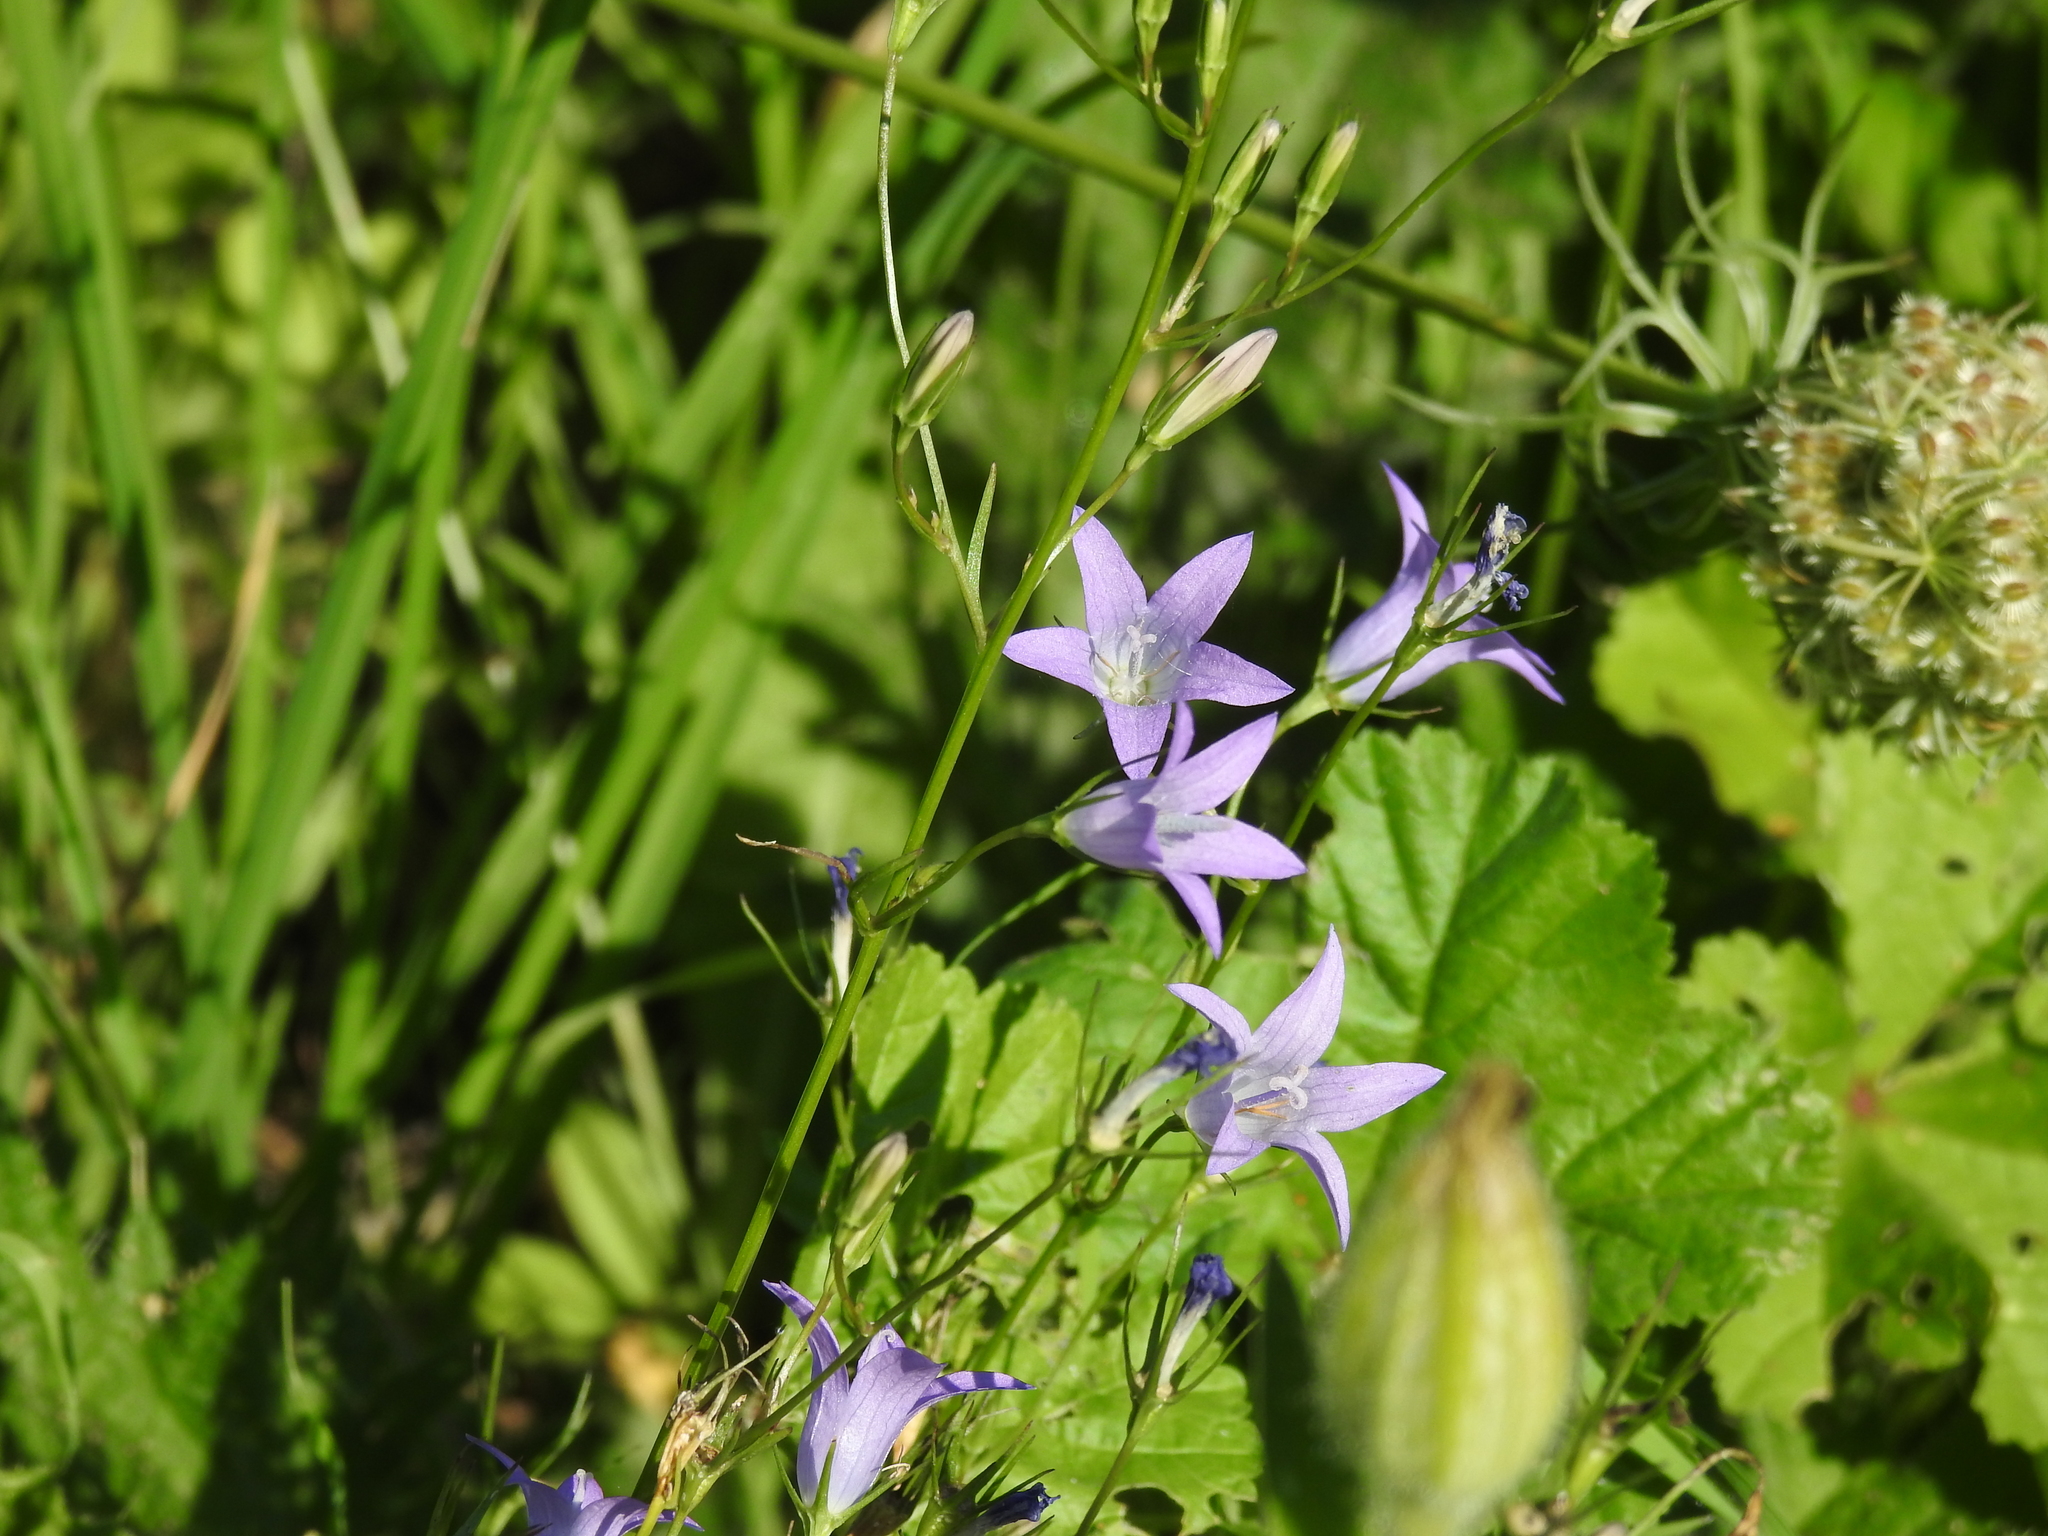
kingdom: Plantae
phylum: Tracheophyta
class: Magnoliopsida
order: Asterales
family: Campanulaceae
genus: Campanula
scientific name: Campanula rapunculus
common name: Rampion bellflower
